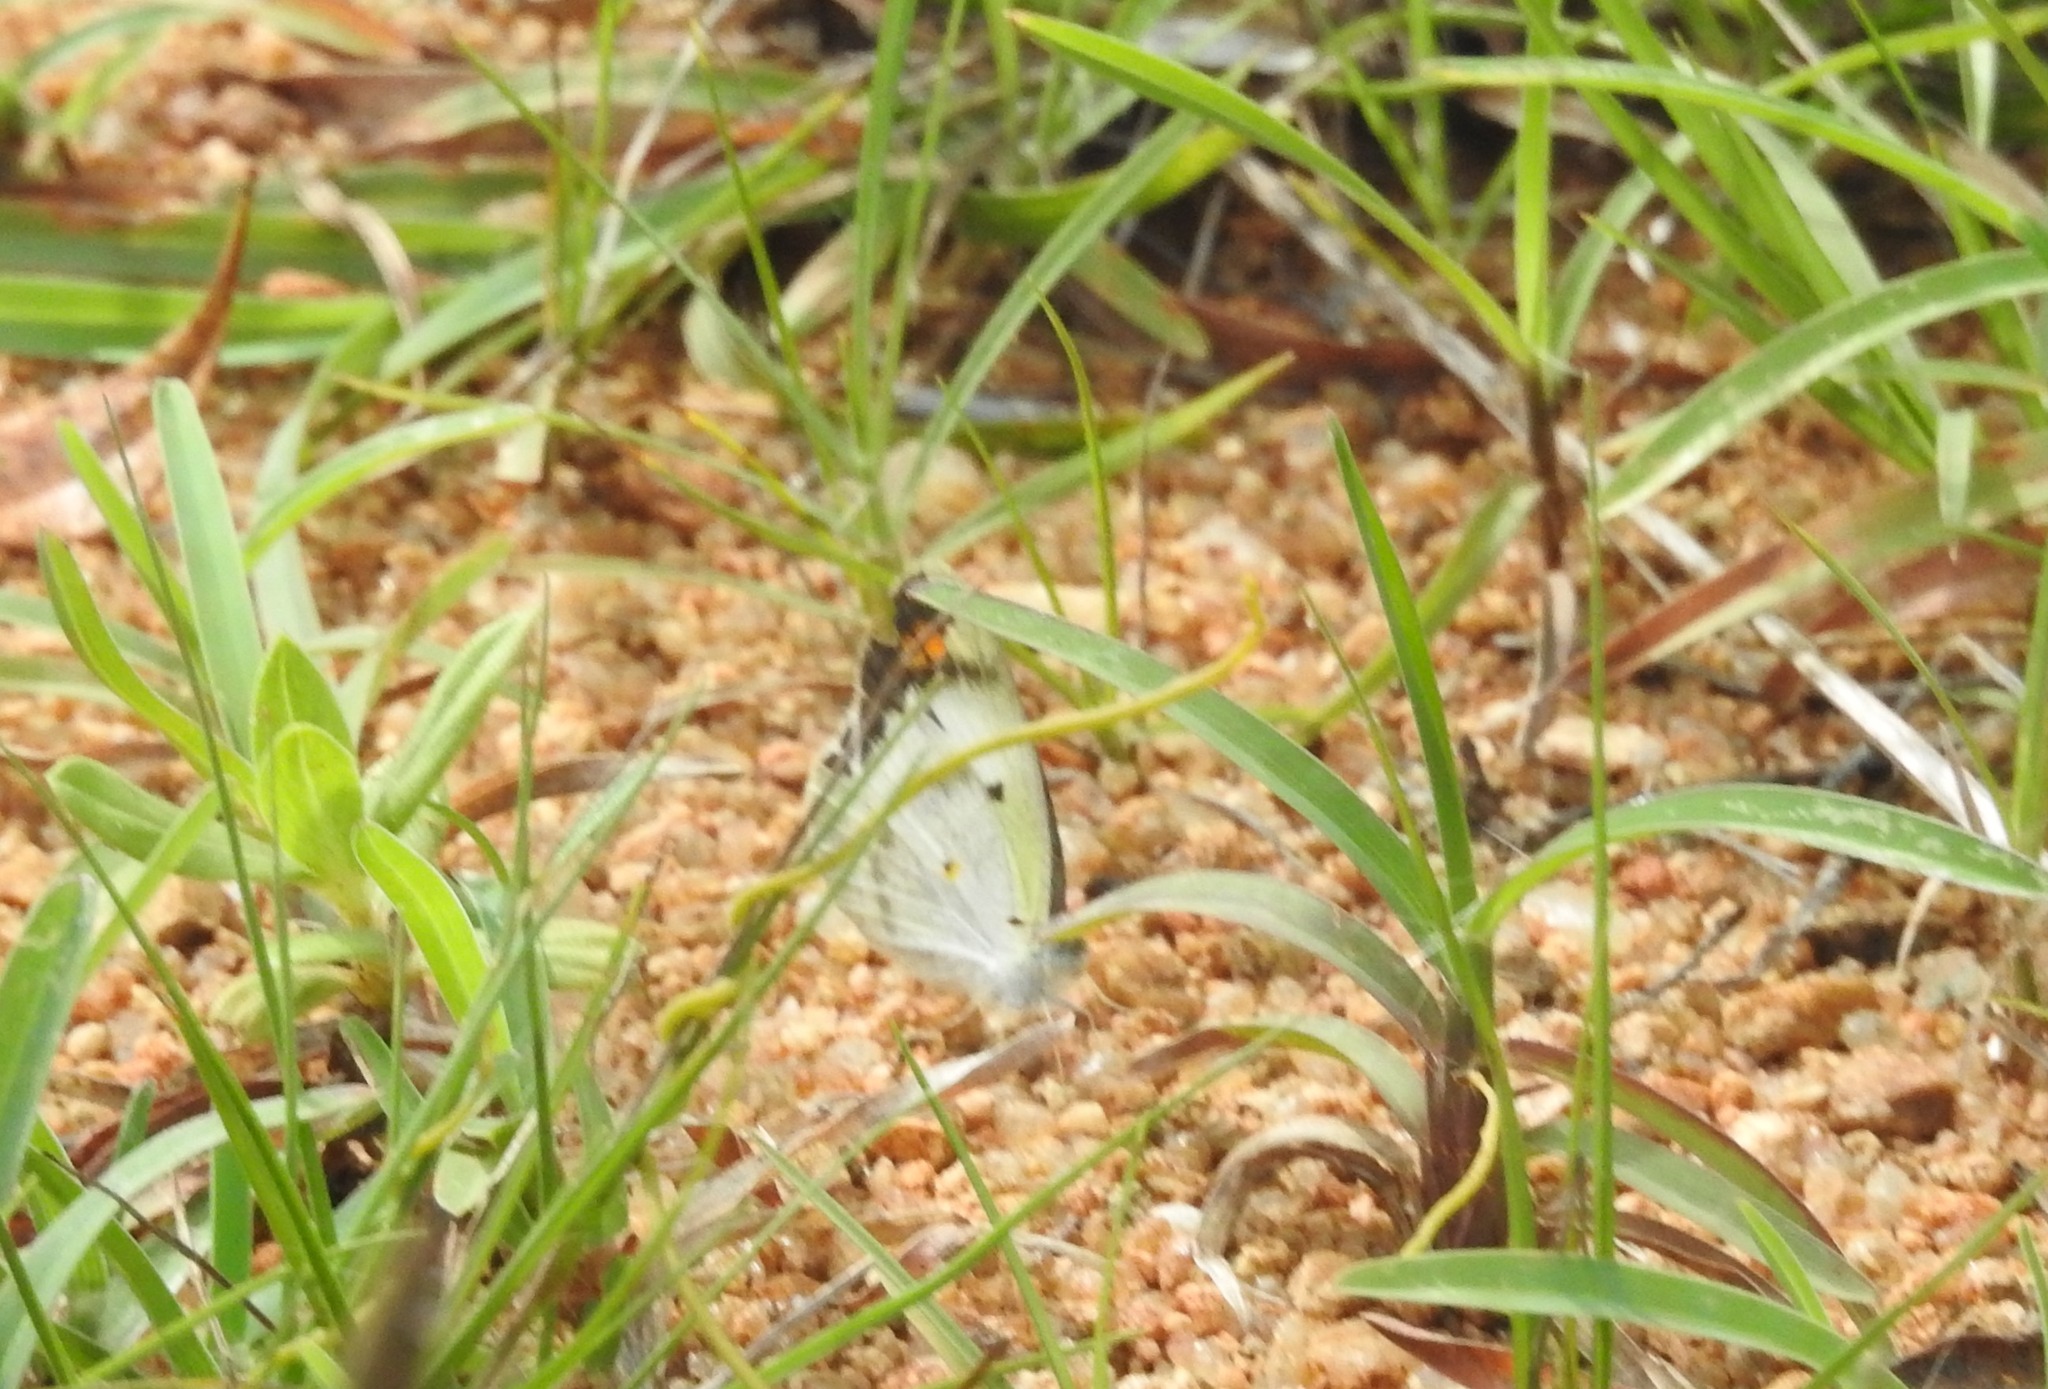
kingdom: Animalia
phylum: Arthropoda
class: Insecta
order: Lepidoptera
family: Pieridae
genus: Colotis
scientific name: Colotis etrida
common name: Little orange tip
